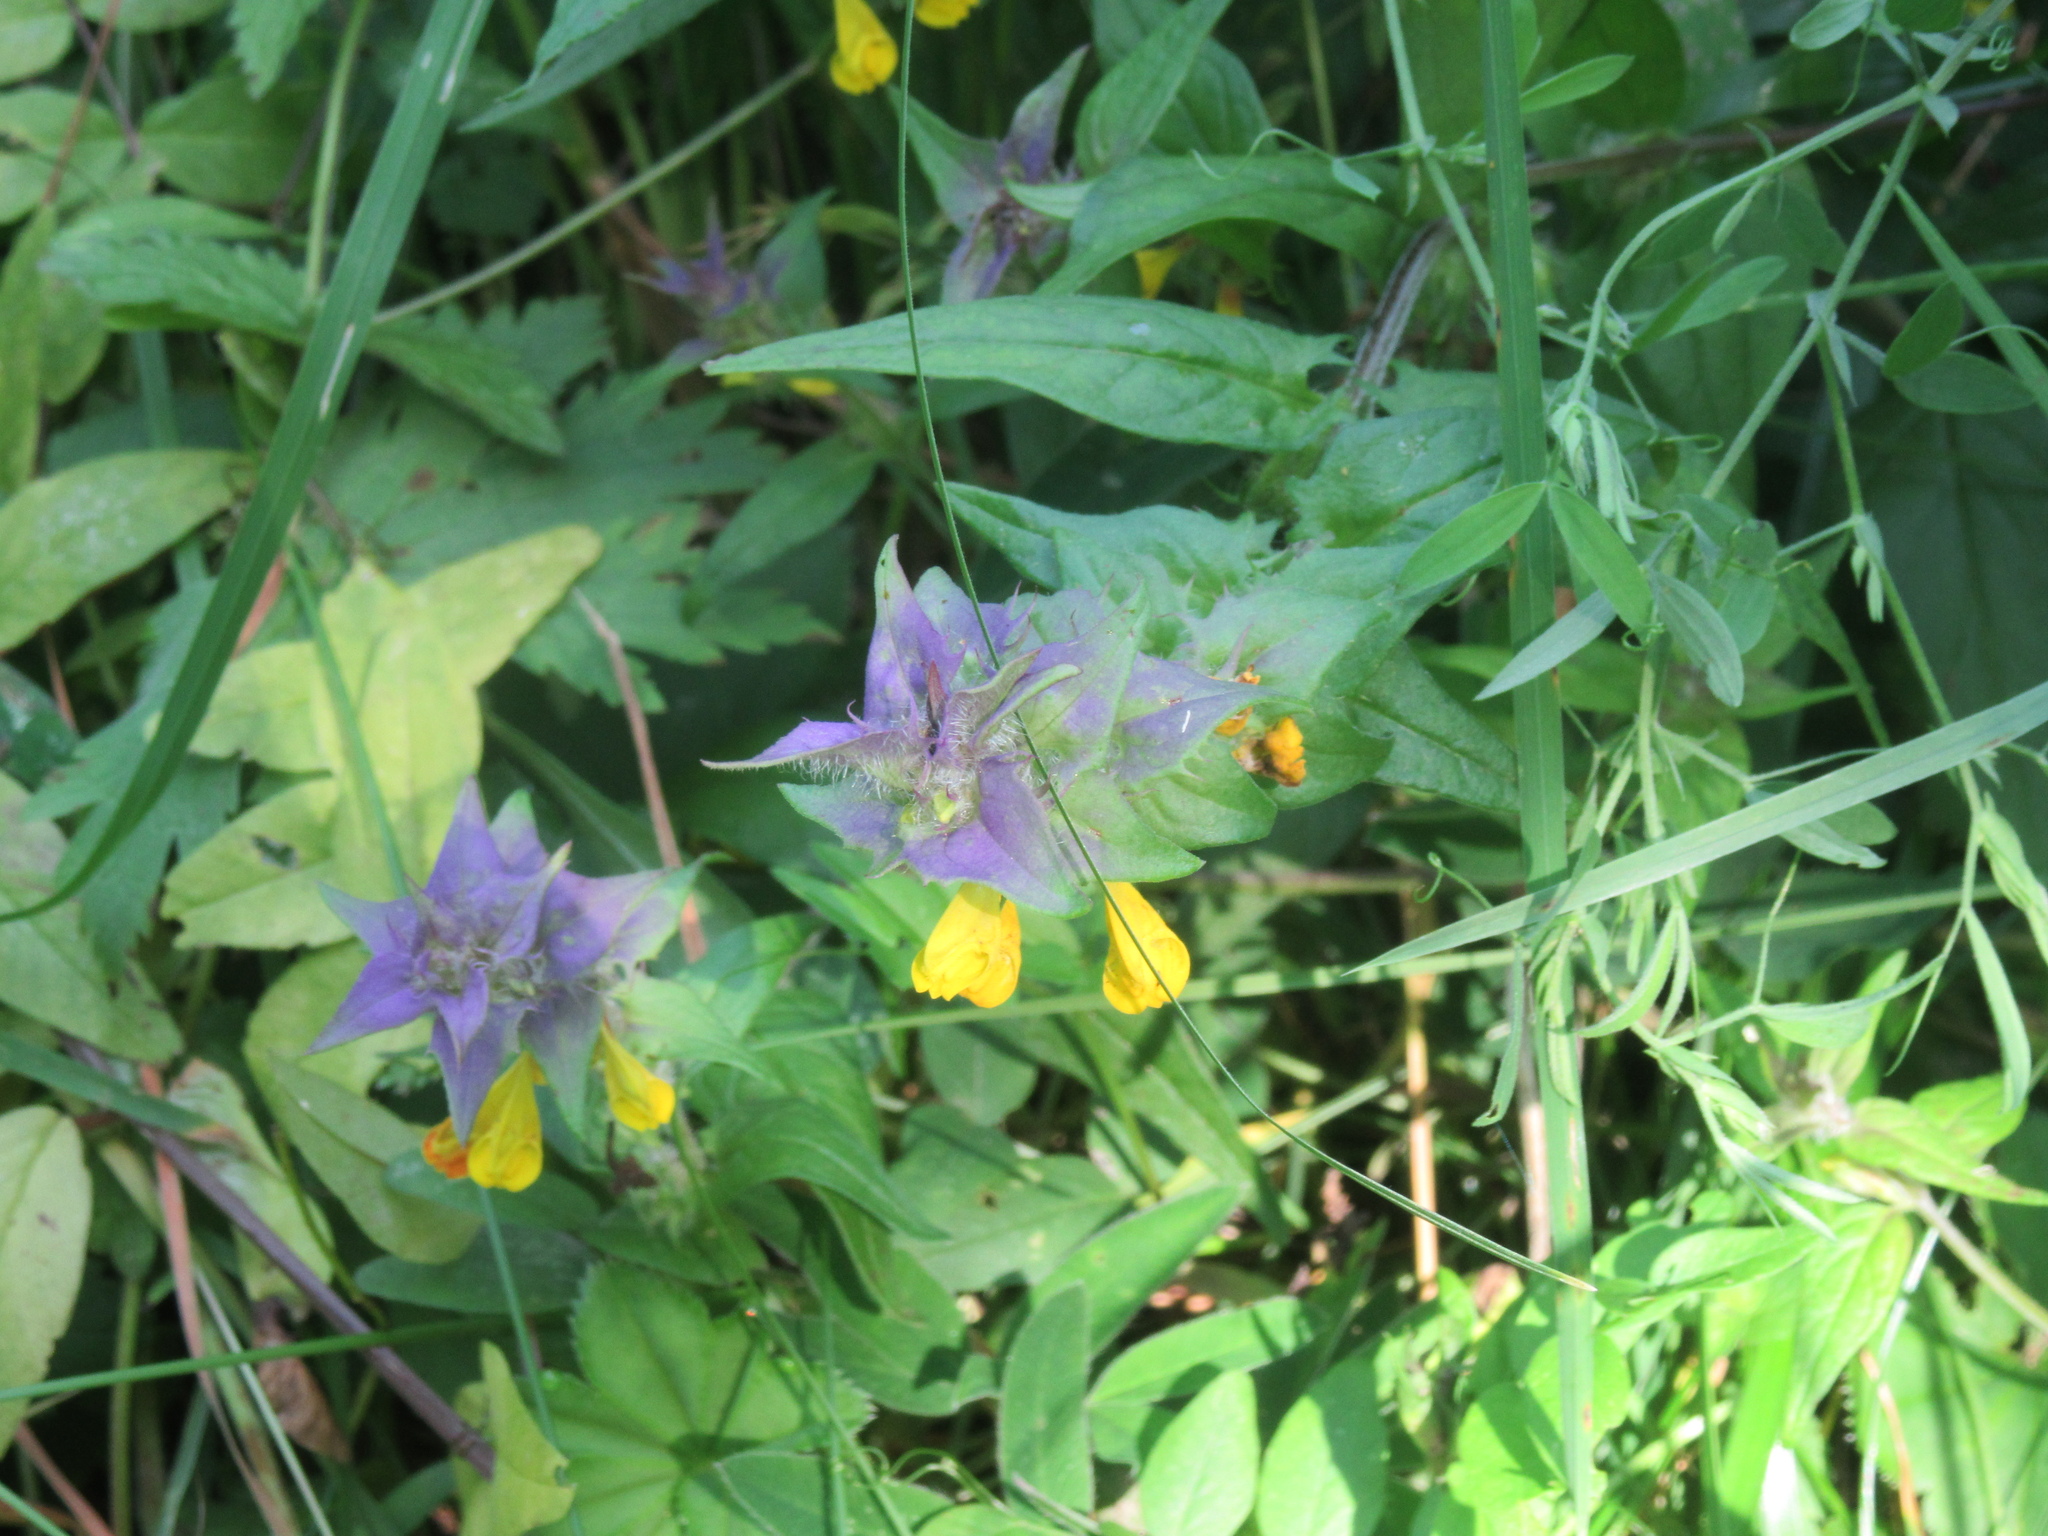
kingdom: Plantae
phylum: Tracheophyta
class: Magnoliopsida
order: Lamiales
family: Orobanchaceae
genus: Melampyrum
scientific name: Melampyrum nemorosum
